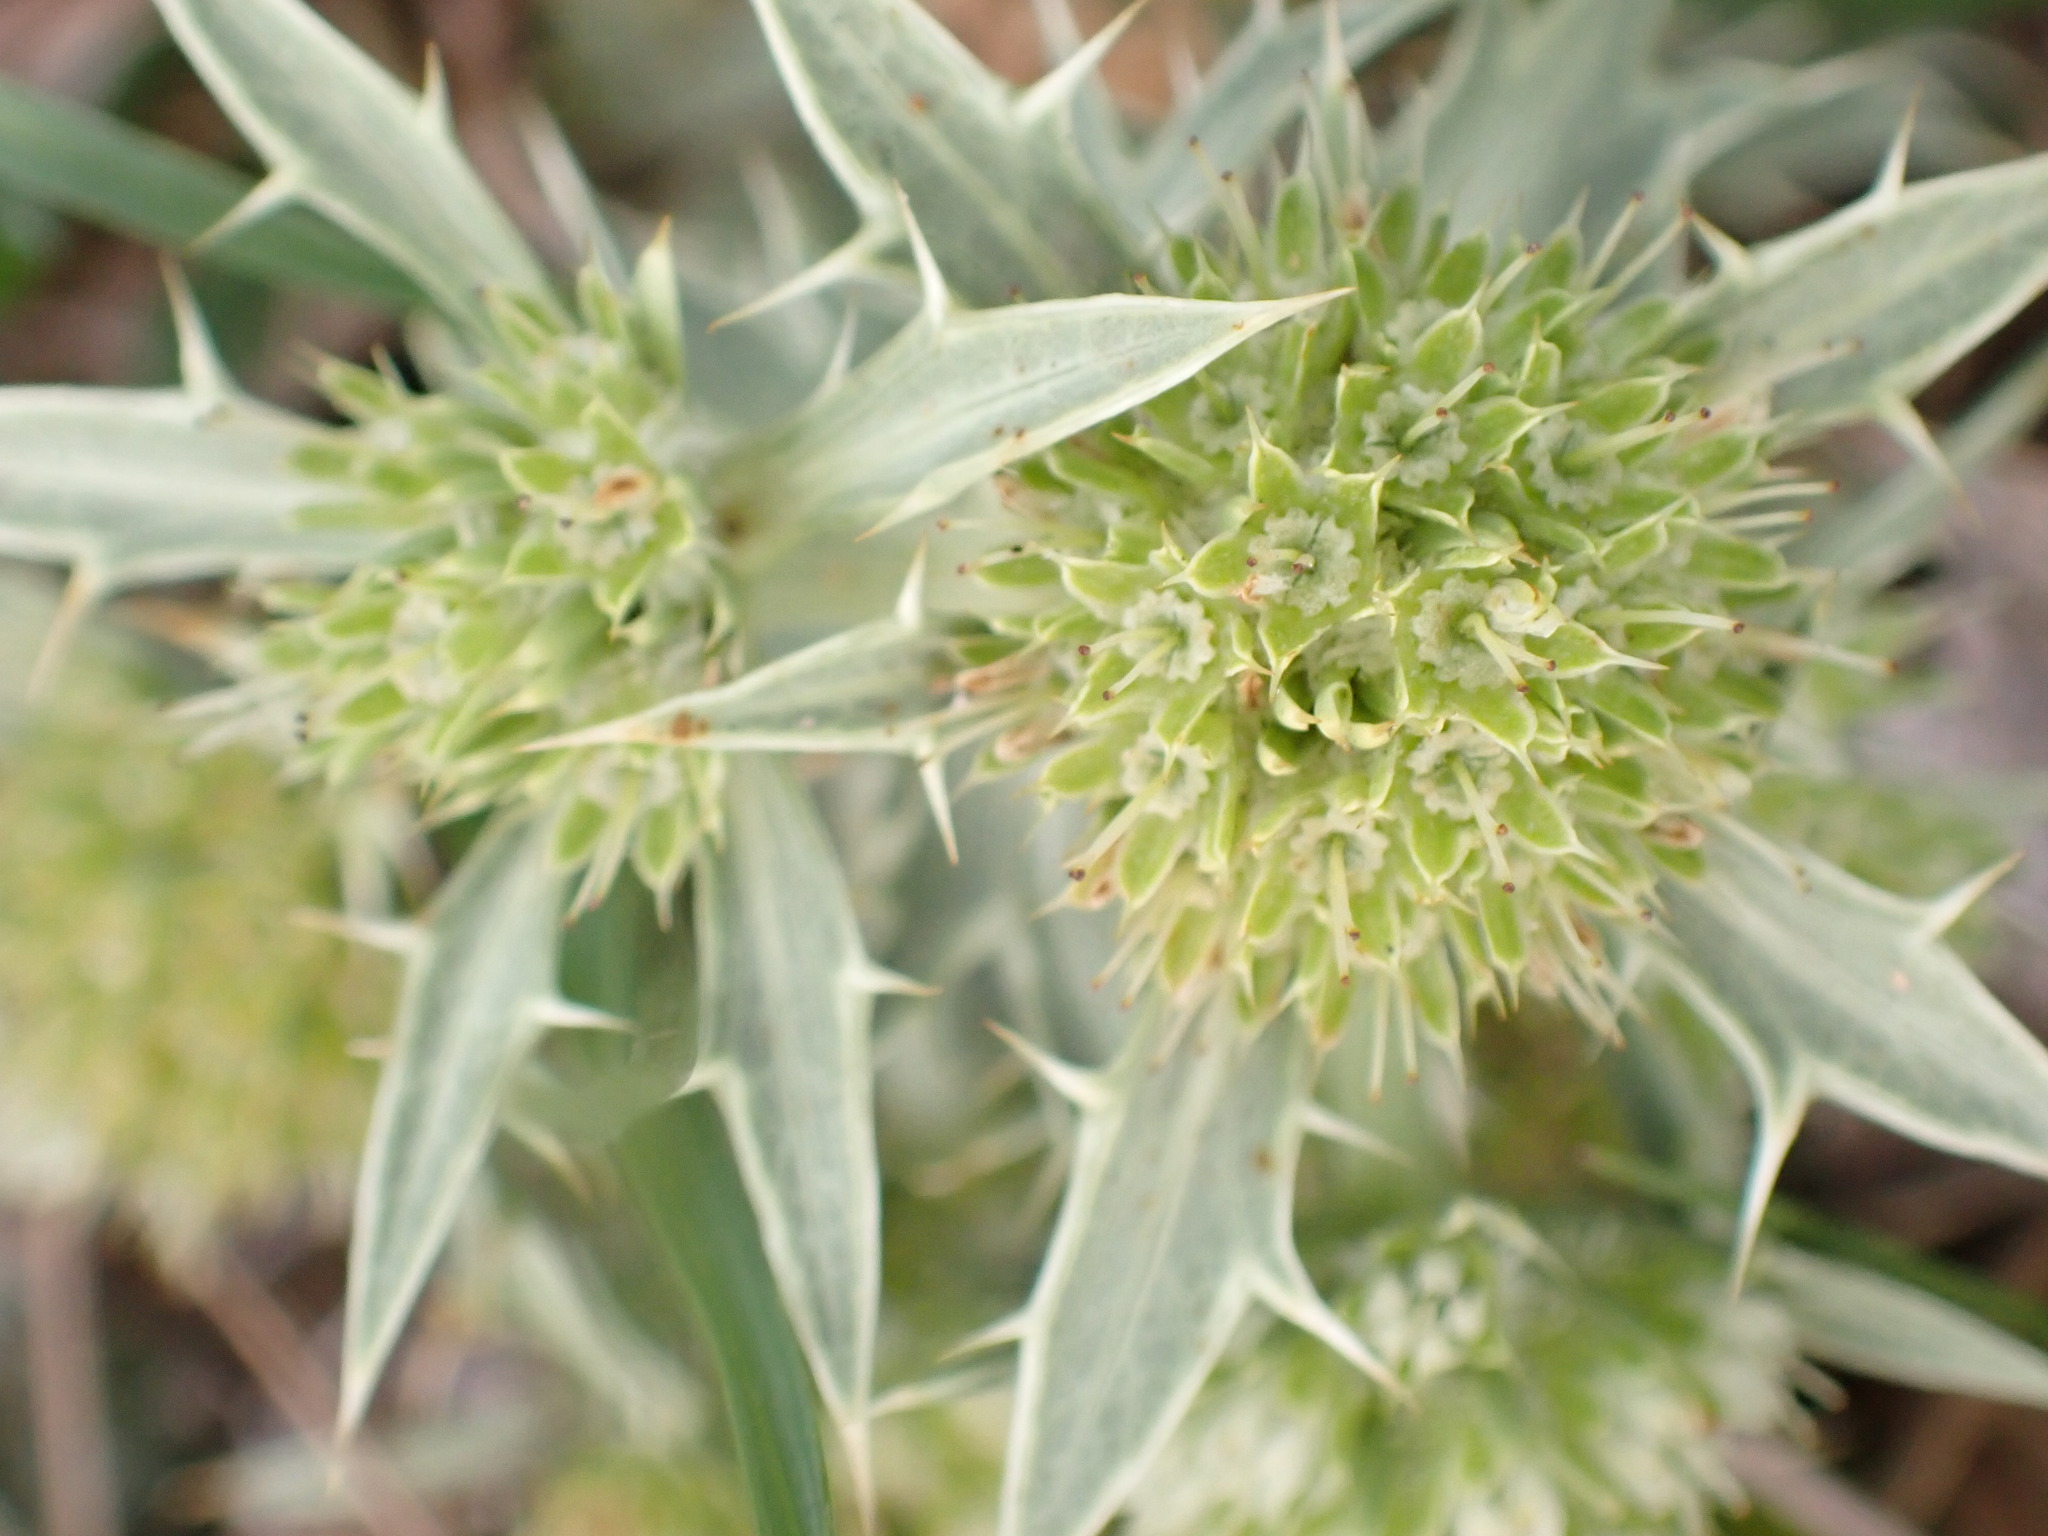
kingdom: Plantae
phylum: Tracheophyta
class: Magnoliopsida
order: Apiales
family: Apiaceae
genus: Eryngium
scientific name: Eryngium campestre
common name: Field eryngo
